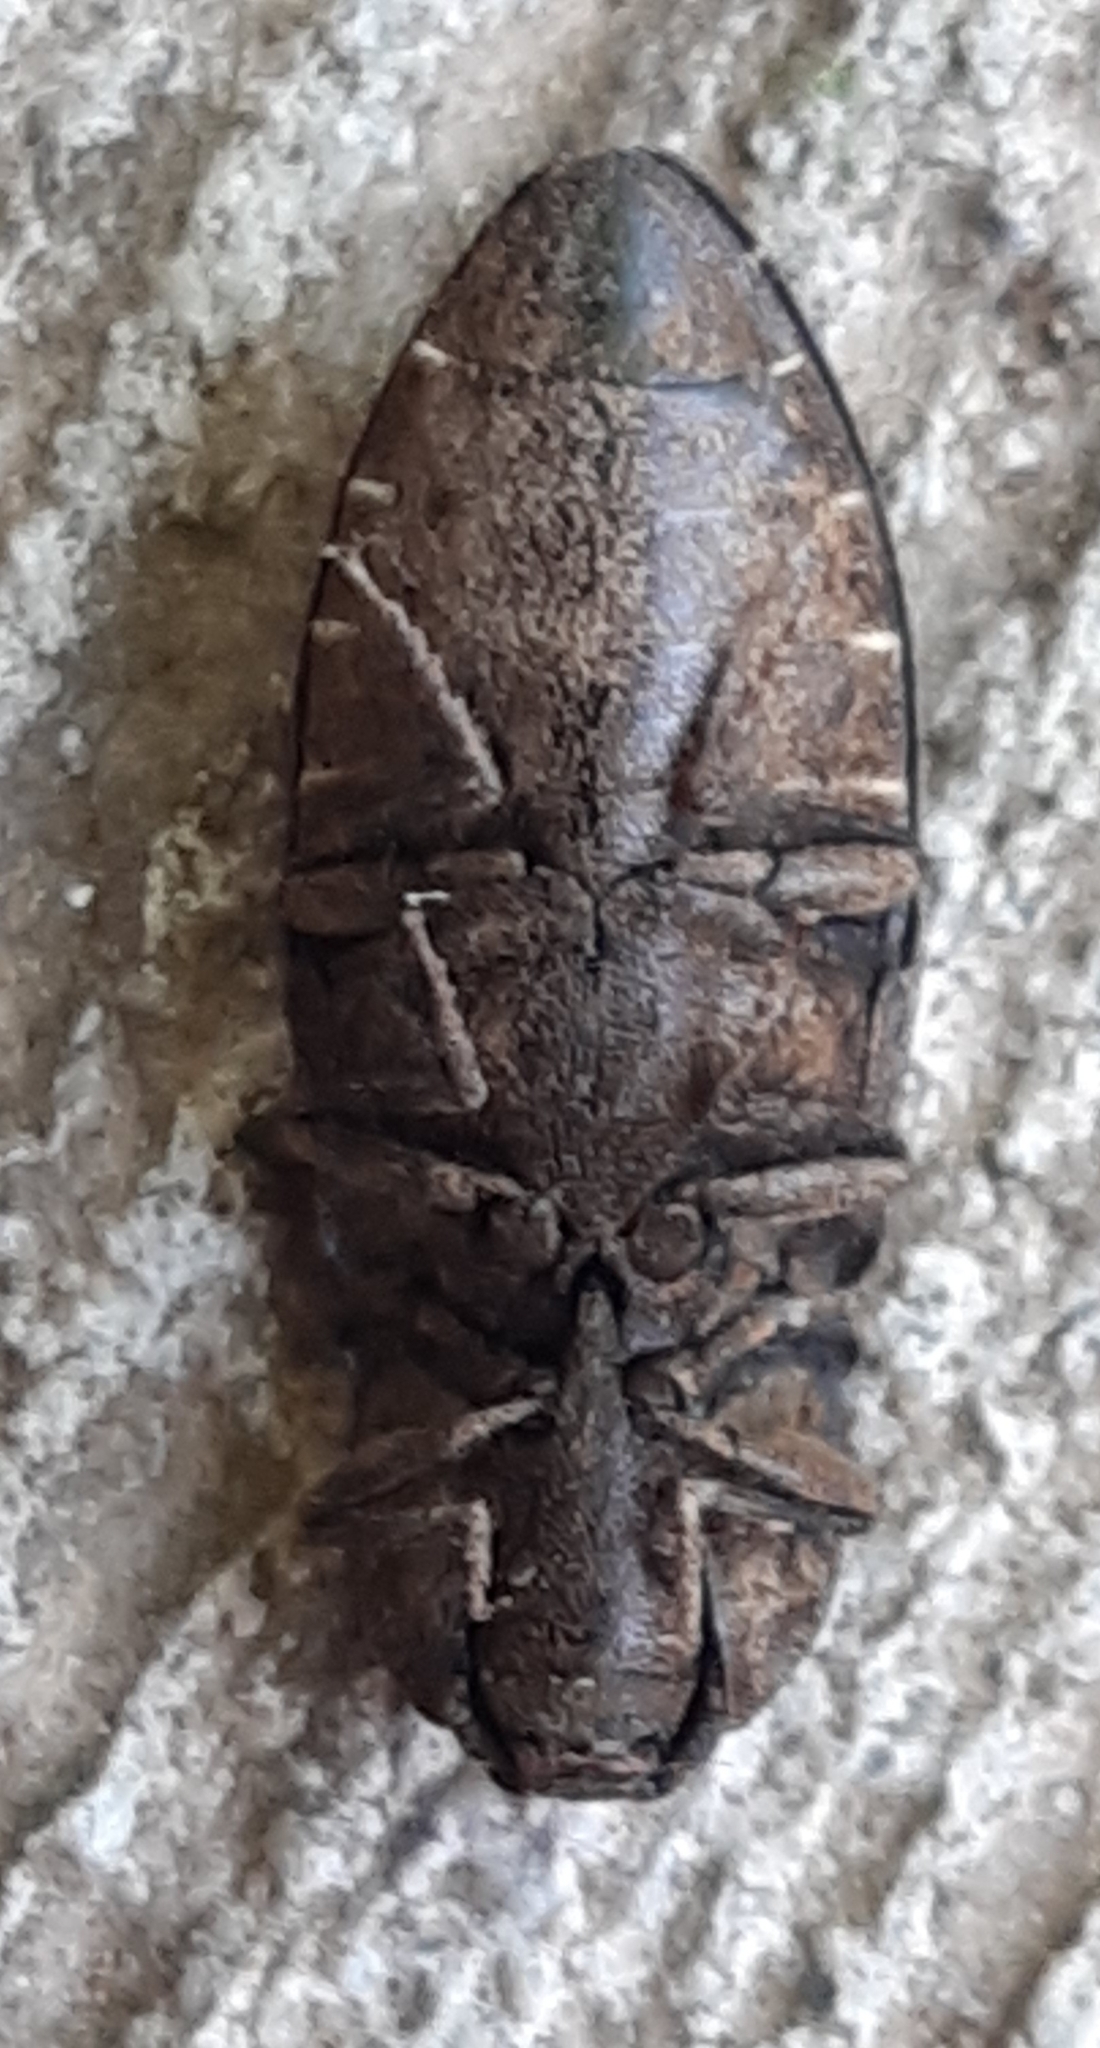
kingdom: Animalia
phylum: Arthropoda
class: Insecta
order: Coleoptera
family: Elateridae
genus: Agrypnus
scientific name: Agrypnus murinus
